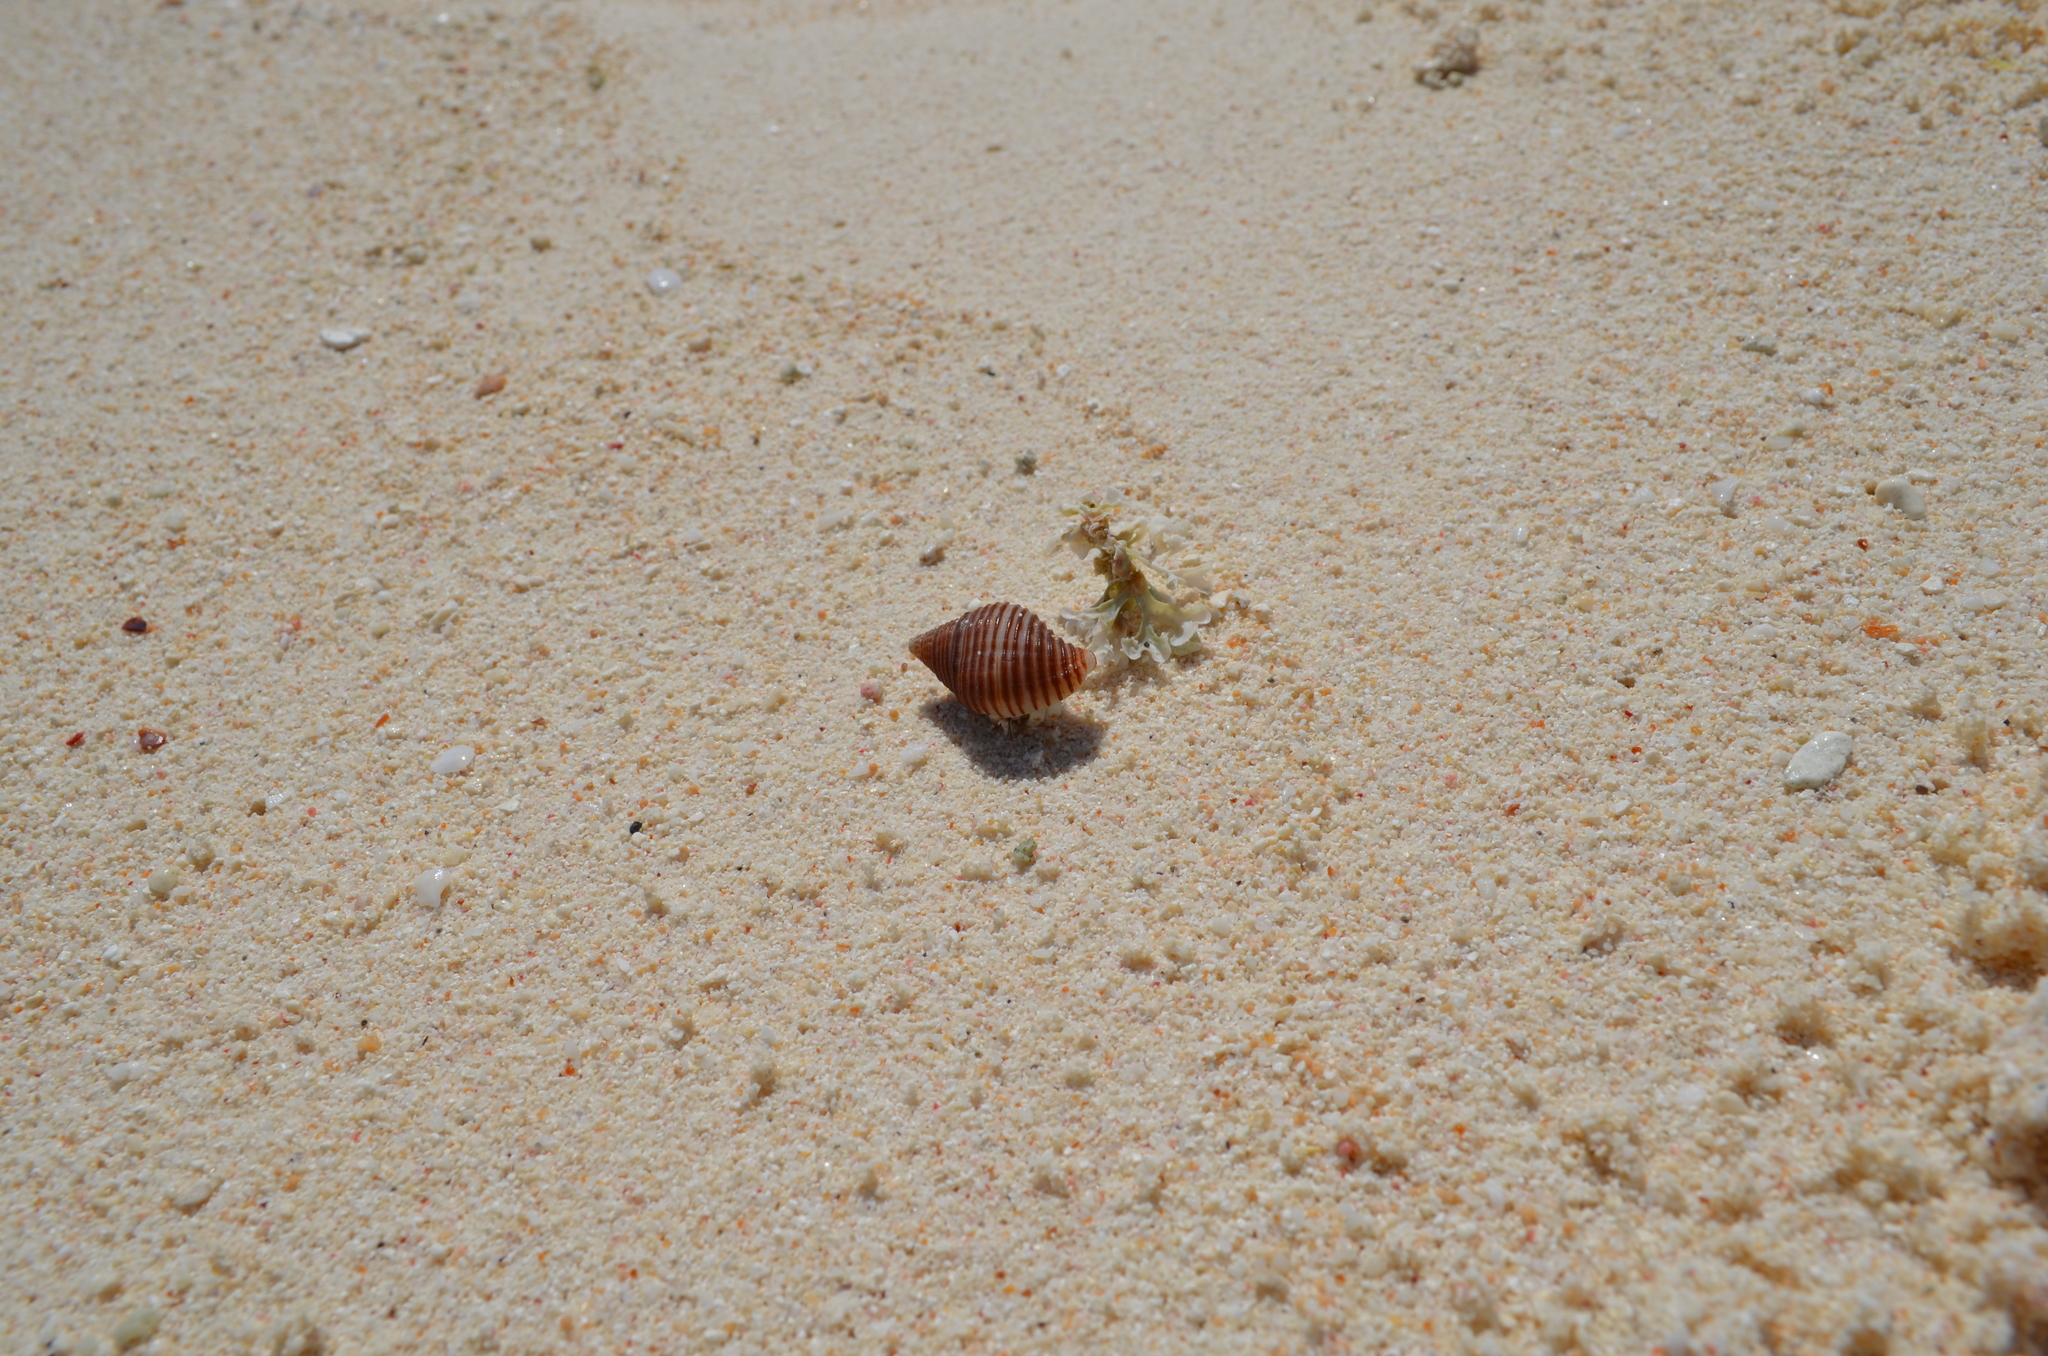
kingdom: Animalia
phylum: Mollusca
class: Gastropoda
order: Neogastropoda
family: Pisaniidae
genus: Pollia
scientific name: Pollia undosa
